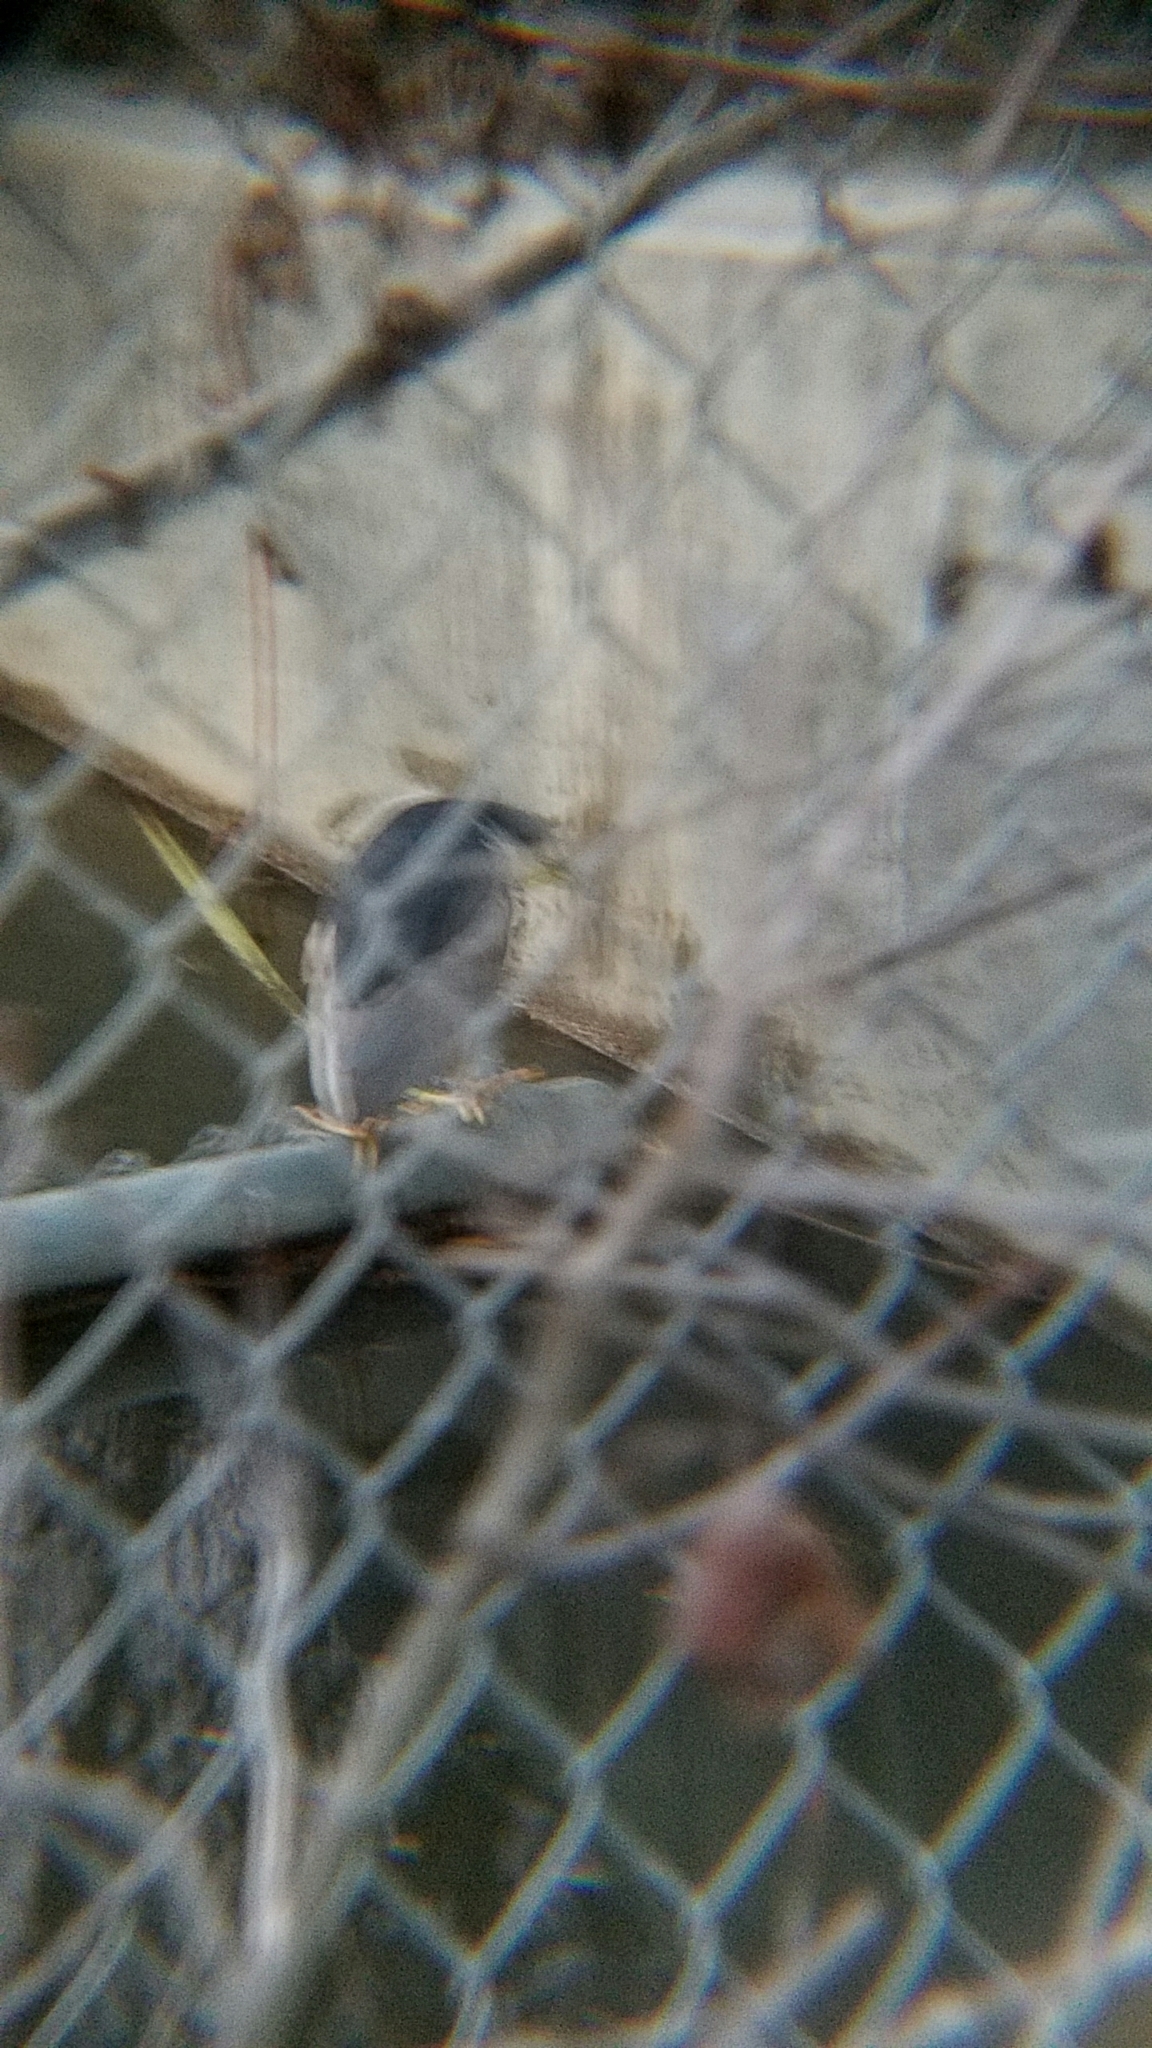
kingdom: Animalia
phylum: Chordata
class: Aves
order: Pelecaniformes
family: Ardeidae
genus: Nycticorax
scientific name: Nycticorax nycticorax
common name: Black-crowned night heron
